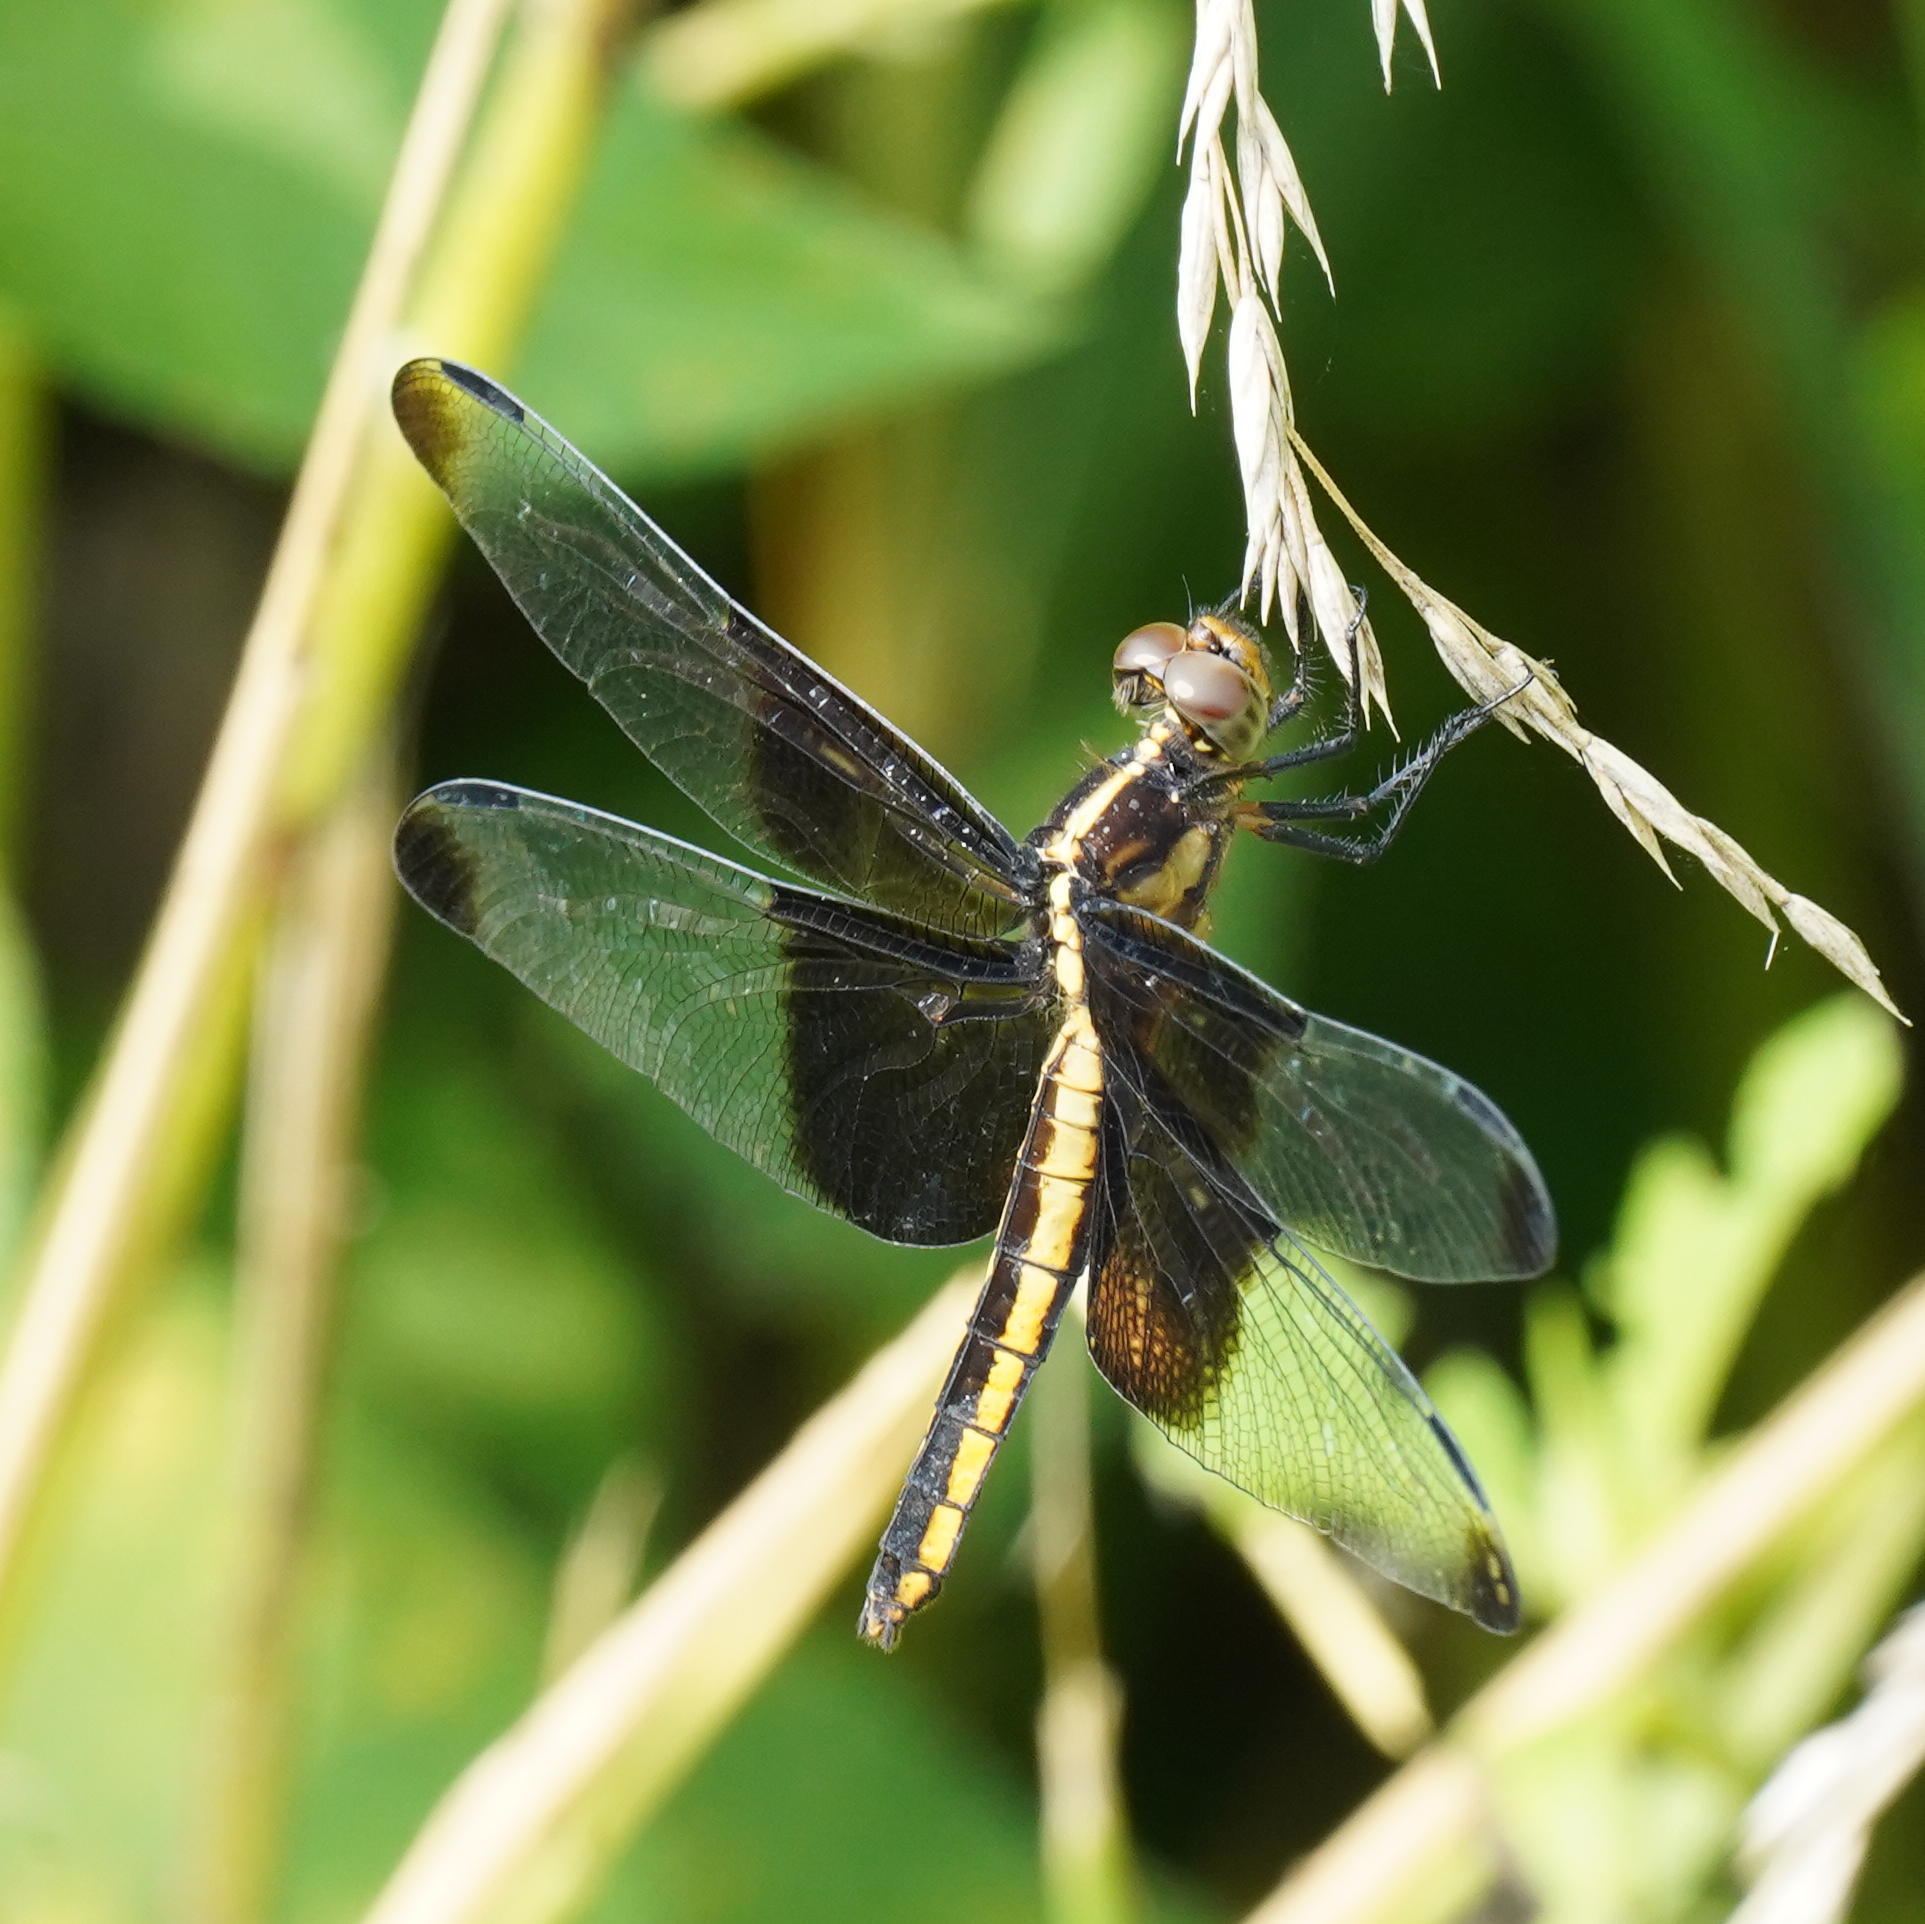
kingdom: Animalia
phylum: Arthropoda
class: Insecta
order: Odonata
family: Libellulidae
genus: Libellula
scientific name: Libellula luctuosa
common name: Widow skimmer
